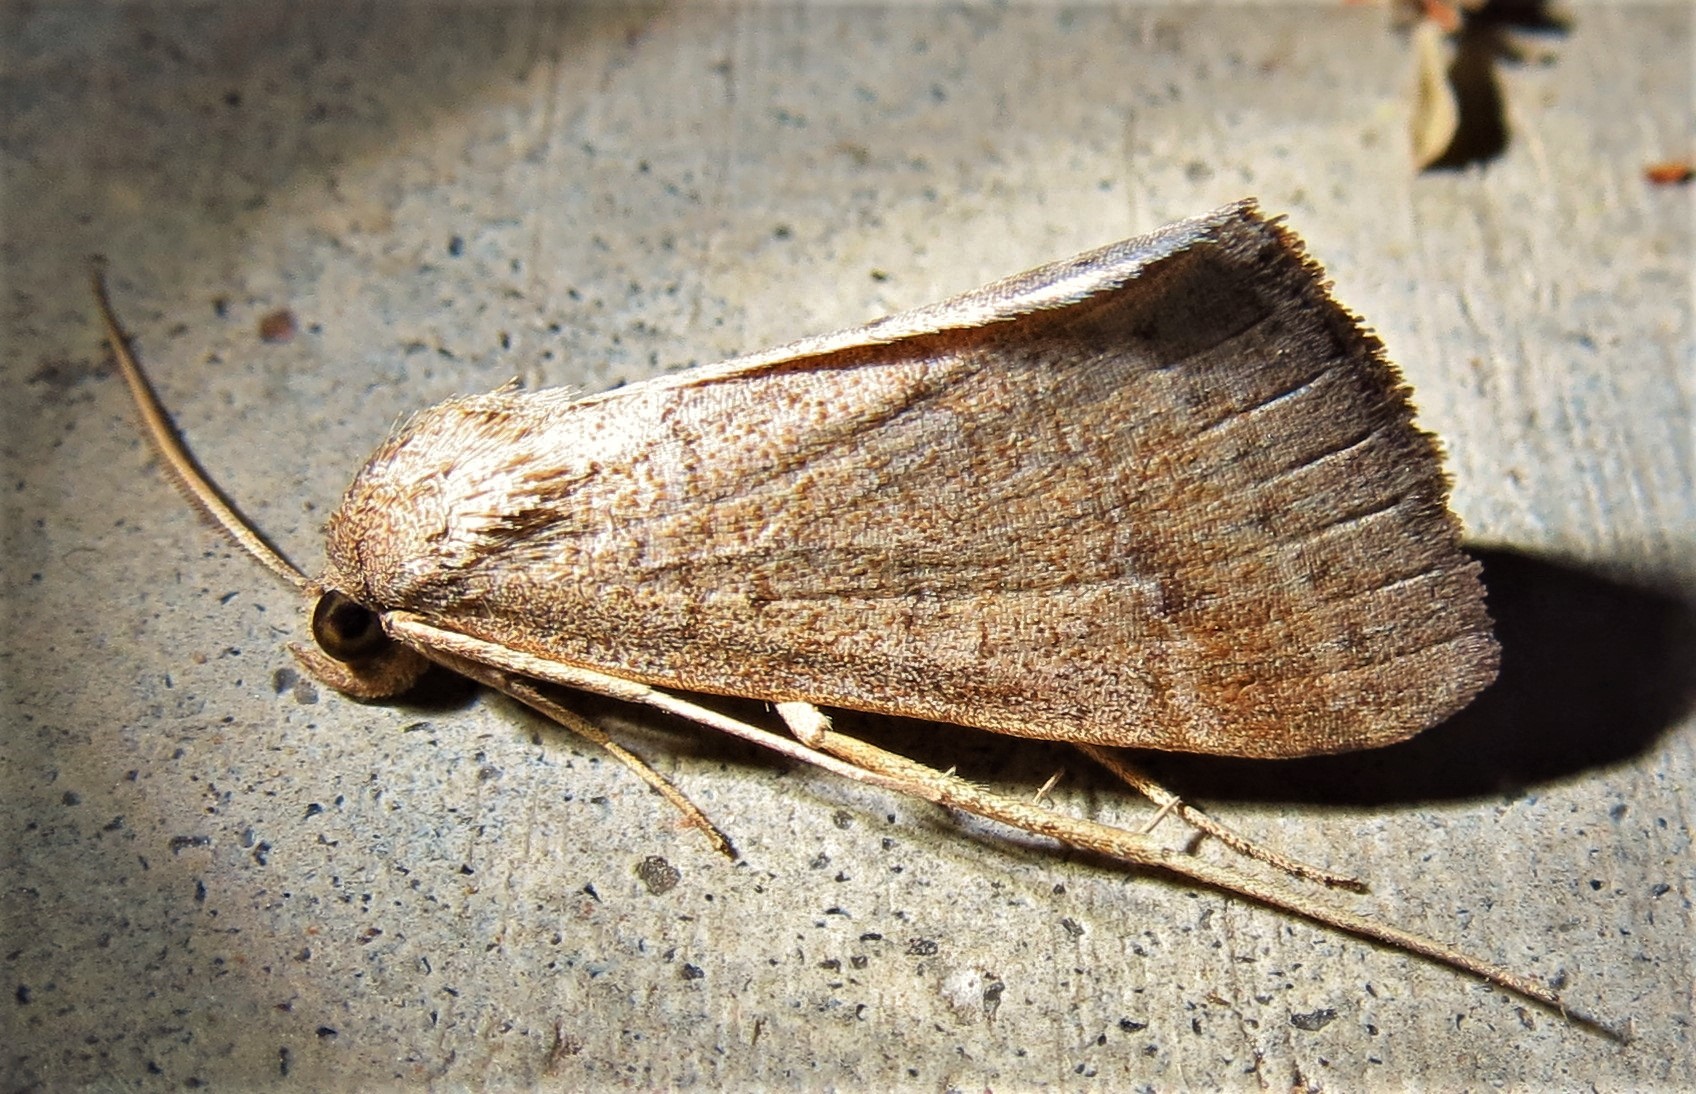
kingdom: Animalia
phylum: Arthropoda
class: Insecta
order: Lepidoptera
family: Erebidae
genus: Caenurgia
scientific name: Caenurgia chloropha
